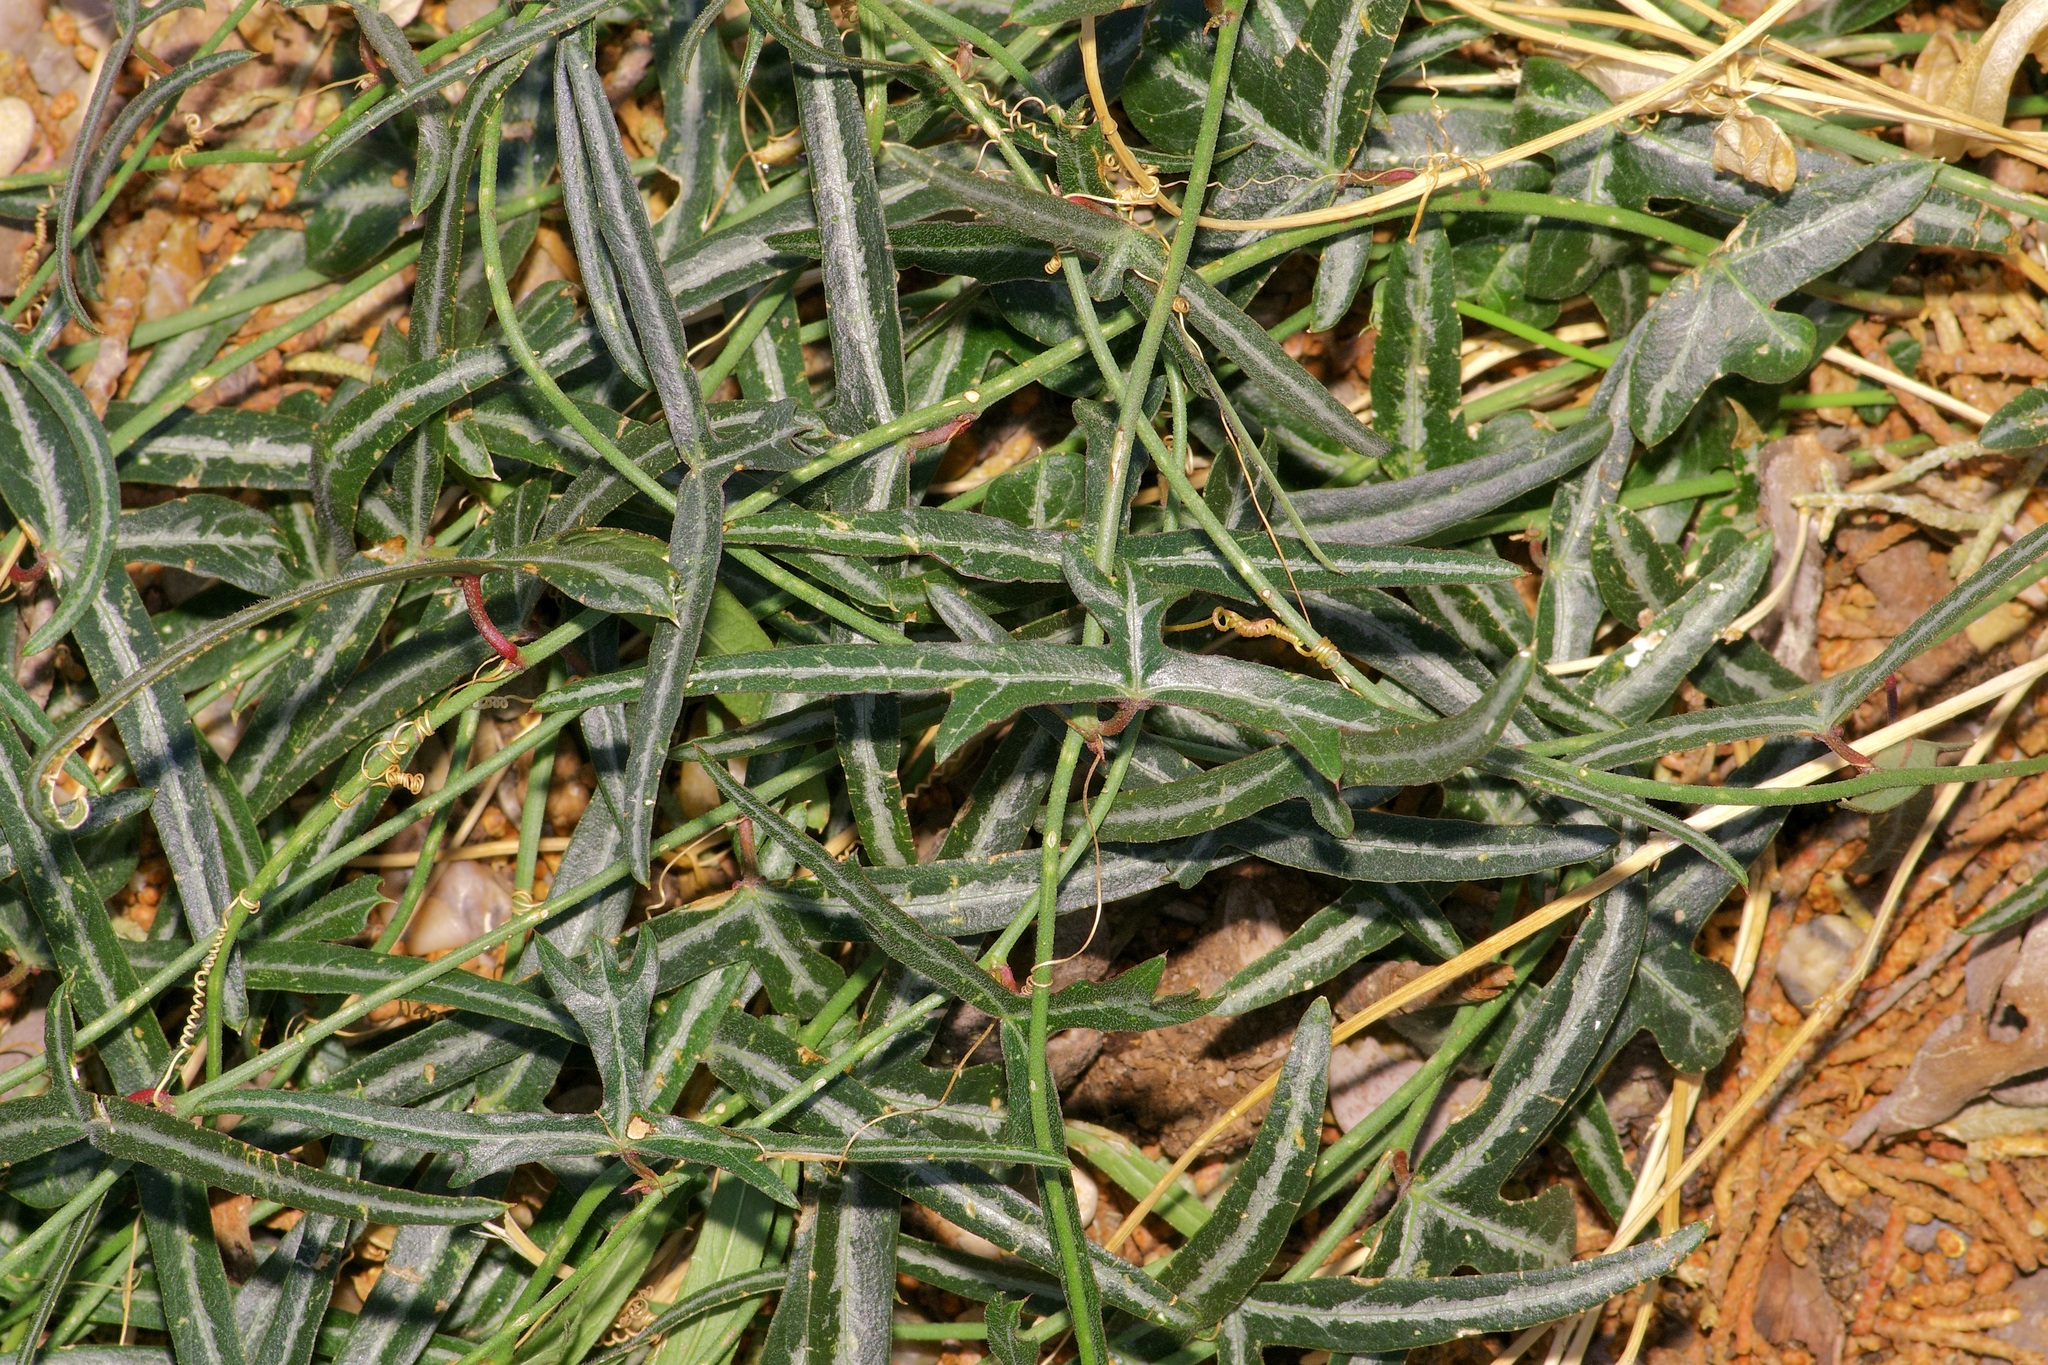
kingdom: Plantae
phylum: Tracheophyta
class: Magnoliopsida
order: Malpighiales
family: Passifloraceae
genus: Passiflora
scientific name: Passiflora tenuiloba
